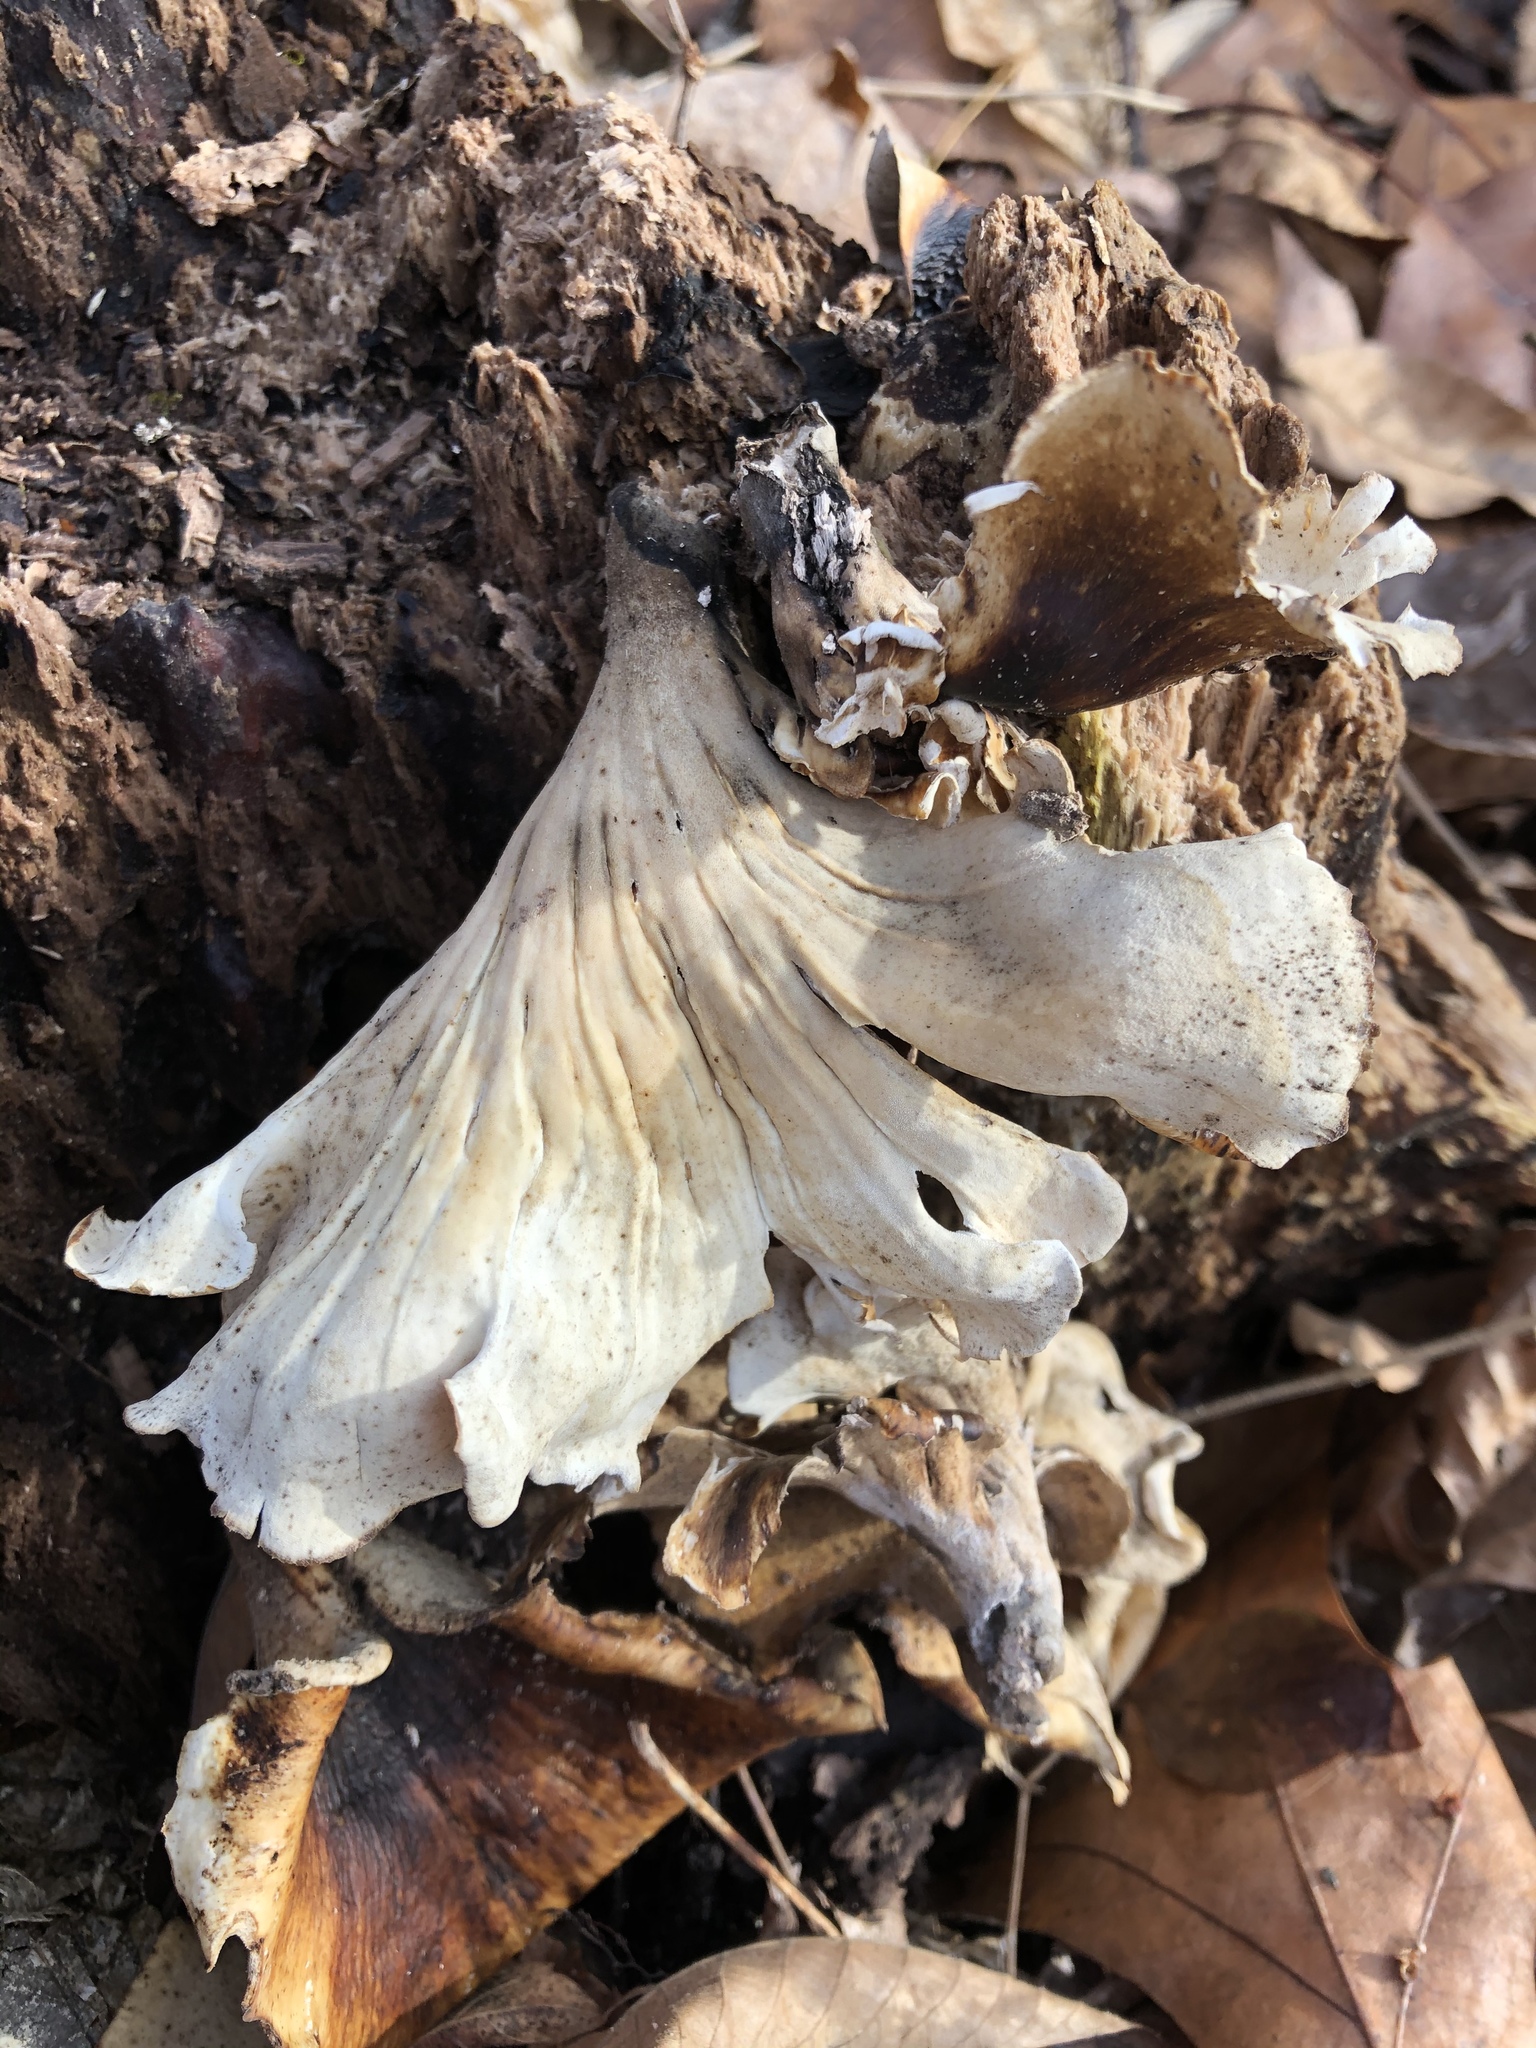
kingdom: Fungi
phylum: Basidiomycota
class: Agaricomycetes
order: Polyporales
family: Polyporaceae
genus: Picipes
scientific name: Picipes badius
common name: Bay polypore
